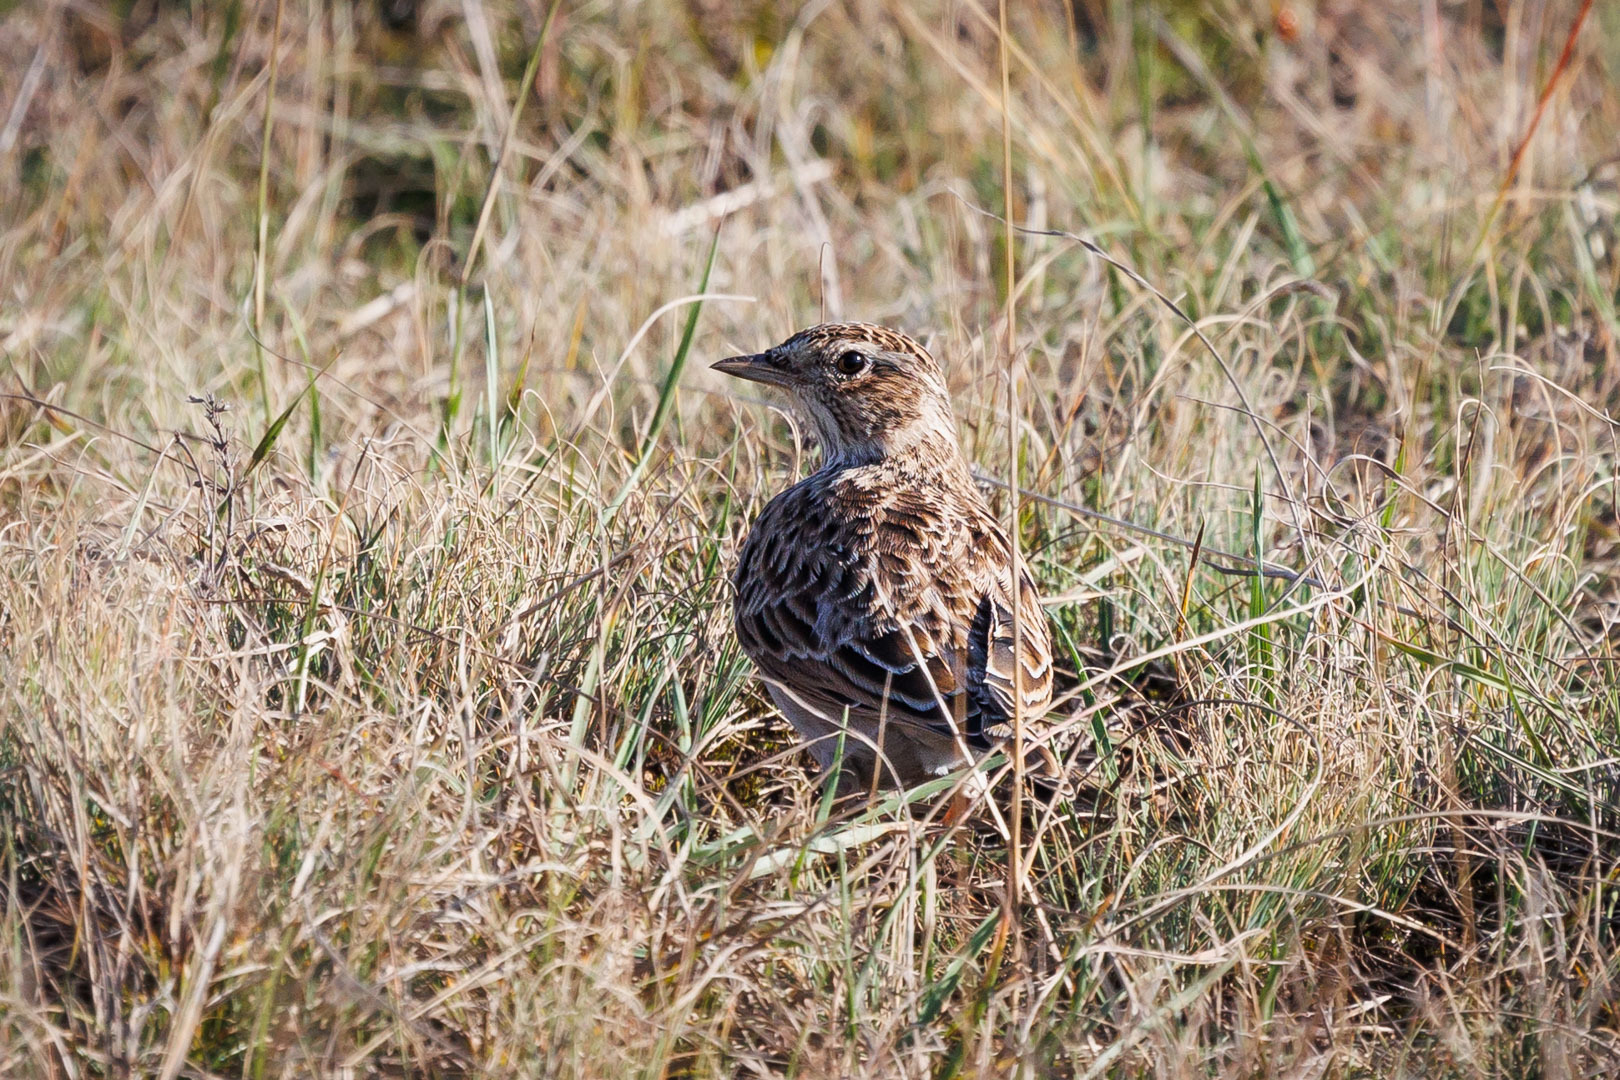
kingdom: Animalia
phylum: Chordata
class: Aves
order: Passeriformes
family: Alaudidae
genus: Alauda
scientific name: Alauda arvensis
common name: Eurasian skylark
